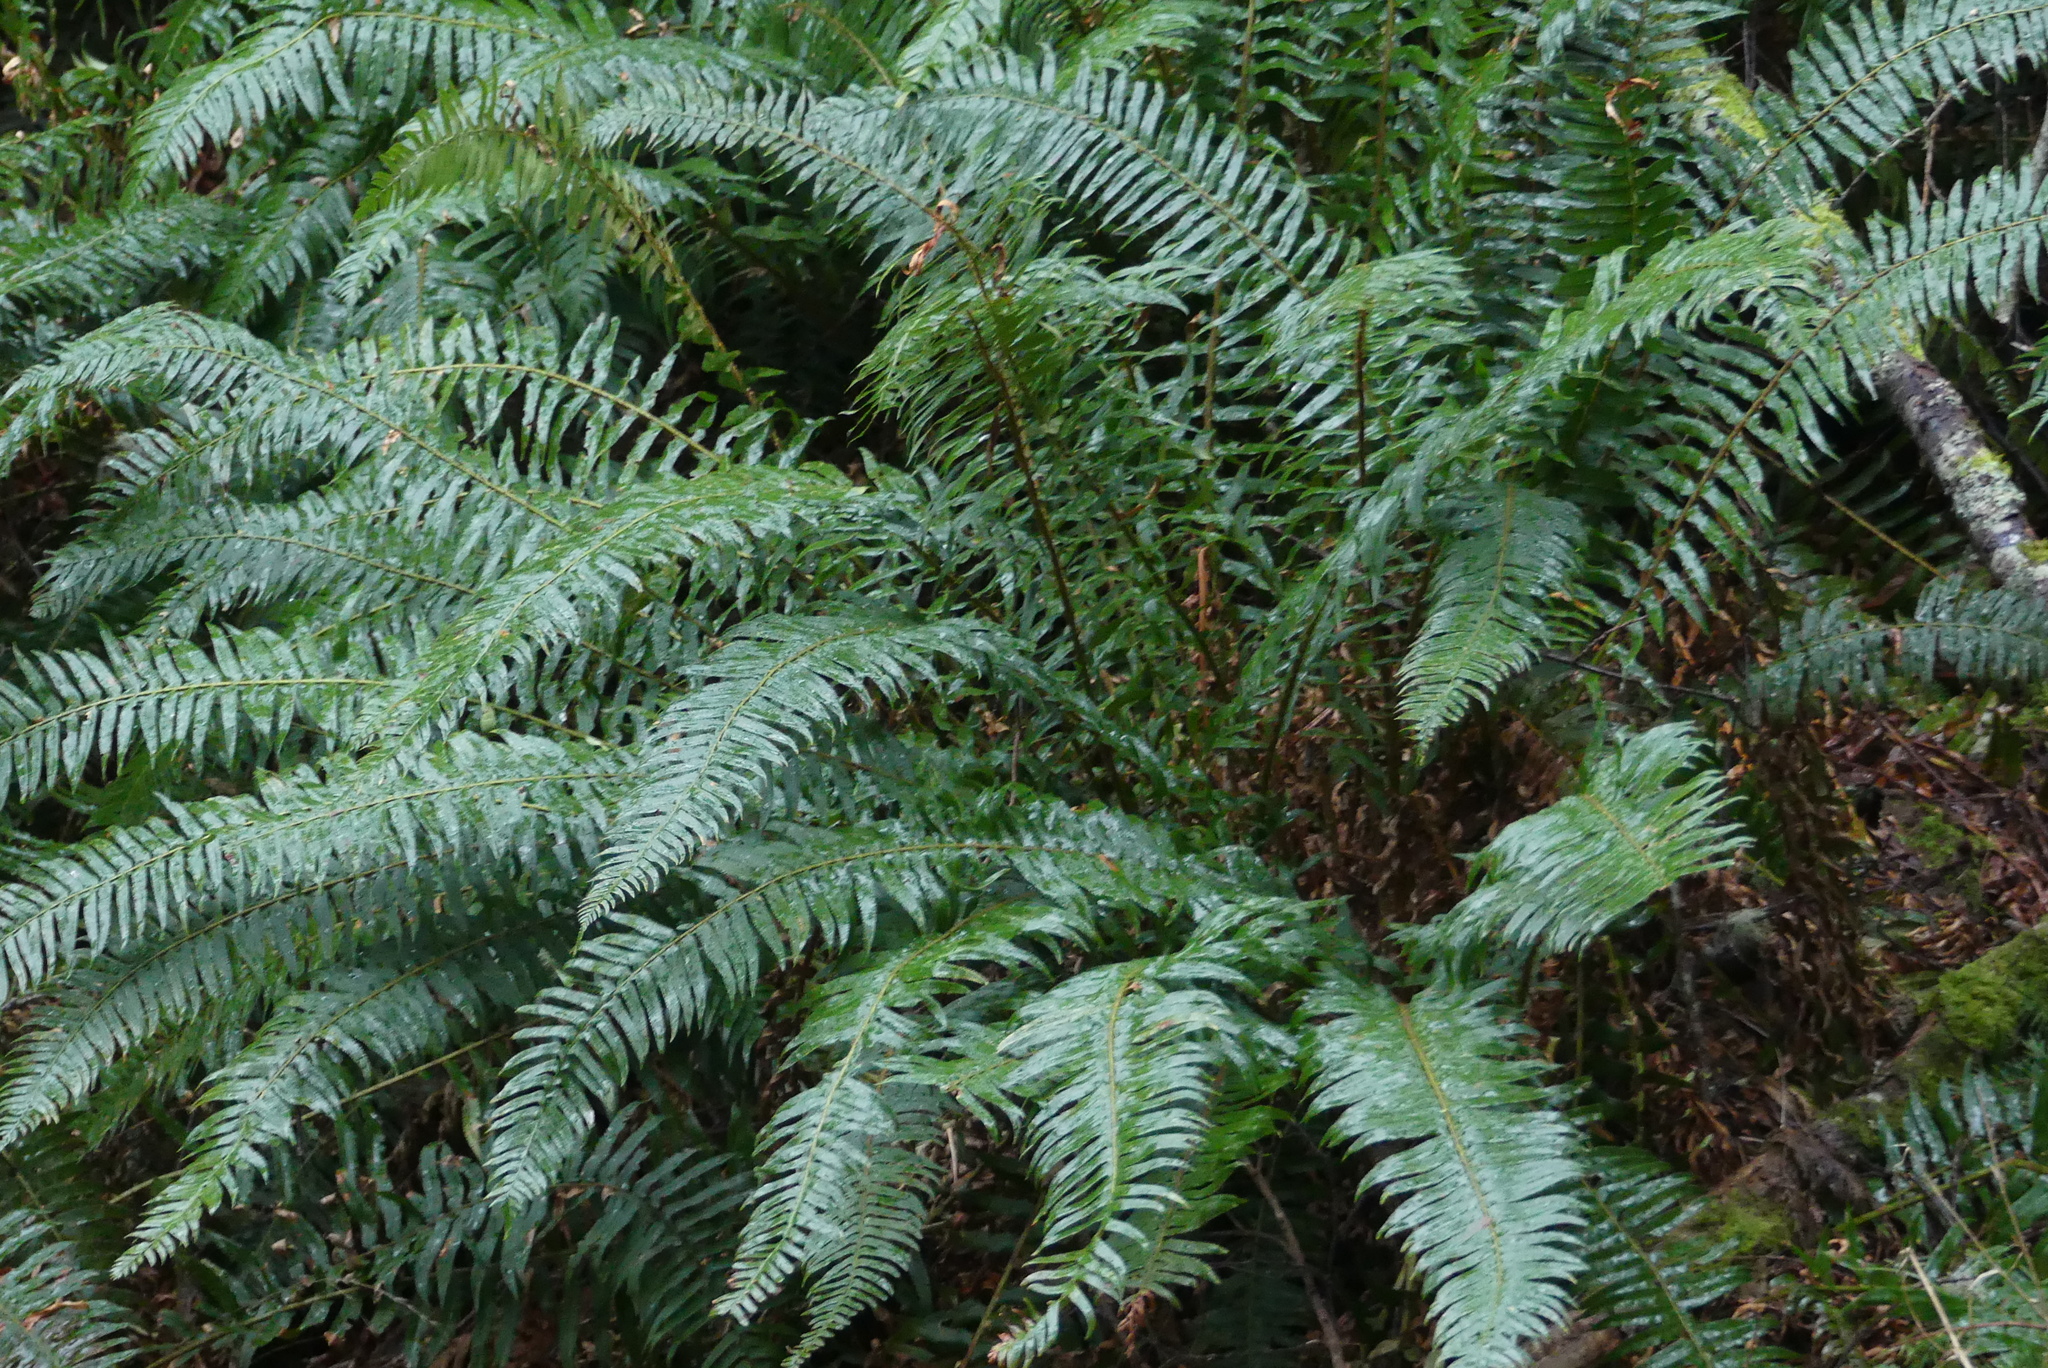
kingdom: Plantae
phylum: Tracheophyta
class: Polypodiopsida
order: Polypodiales
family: Dryopteridaceae
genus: Polystichum
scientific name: Polystichum munitum
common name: Western sword-fern
